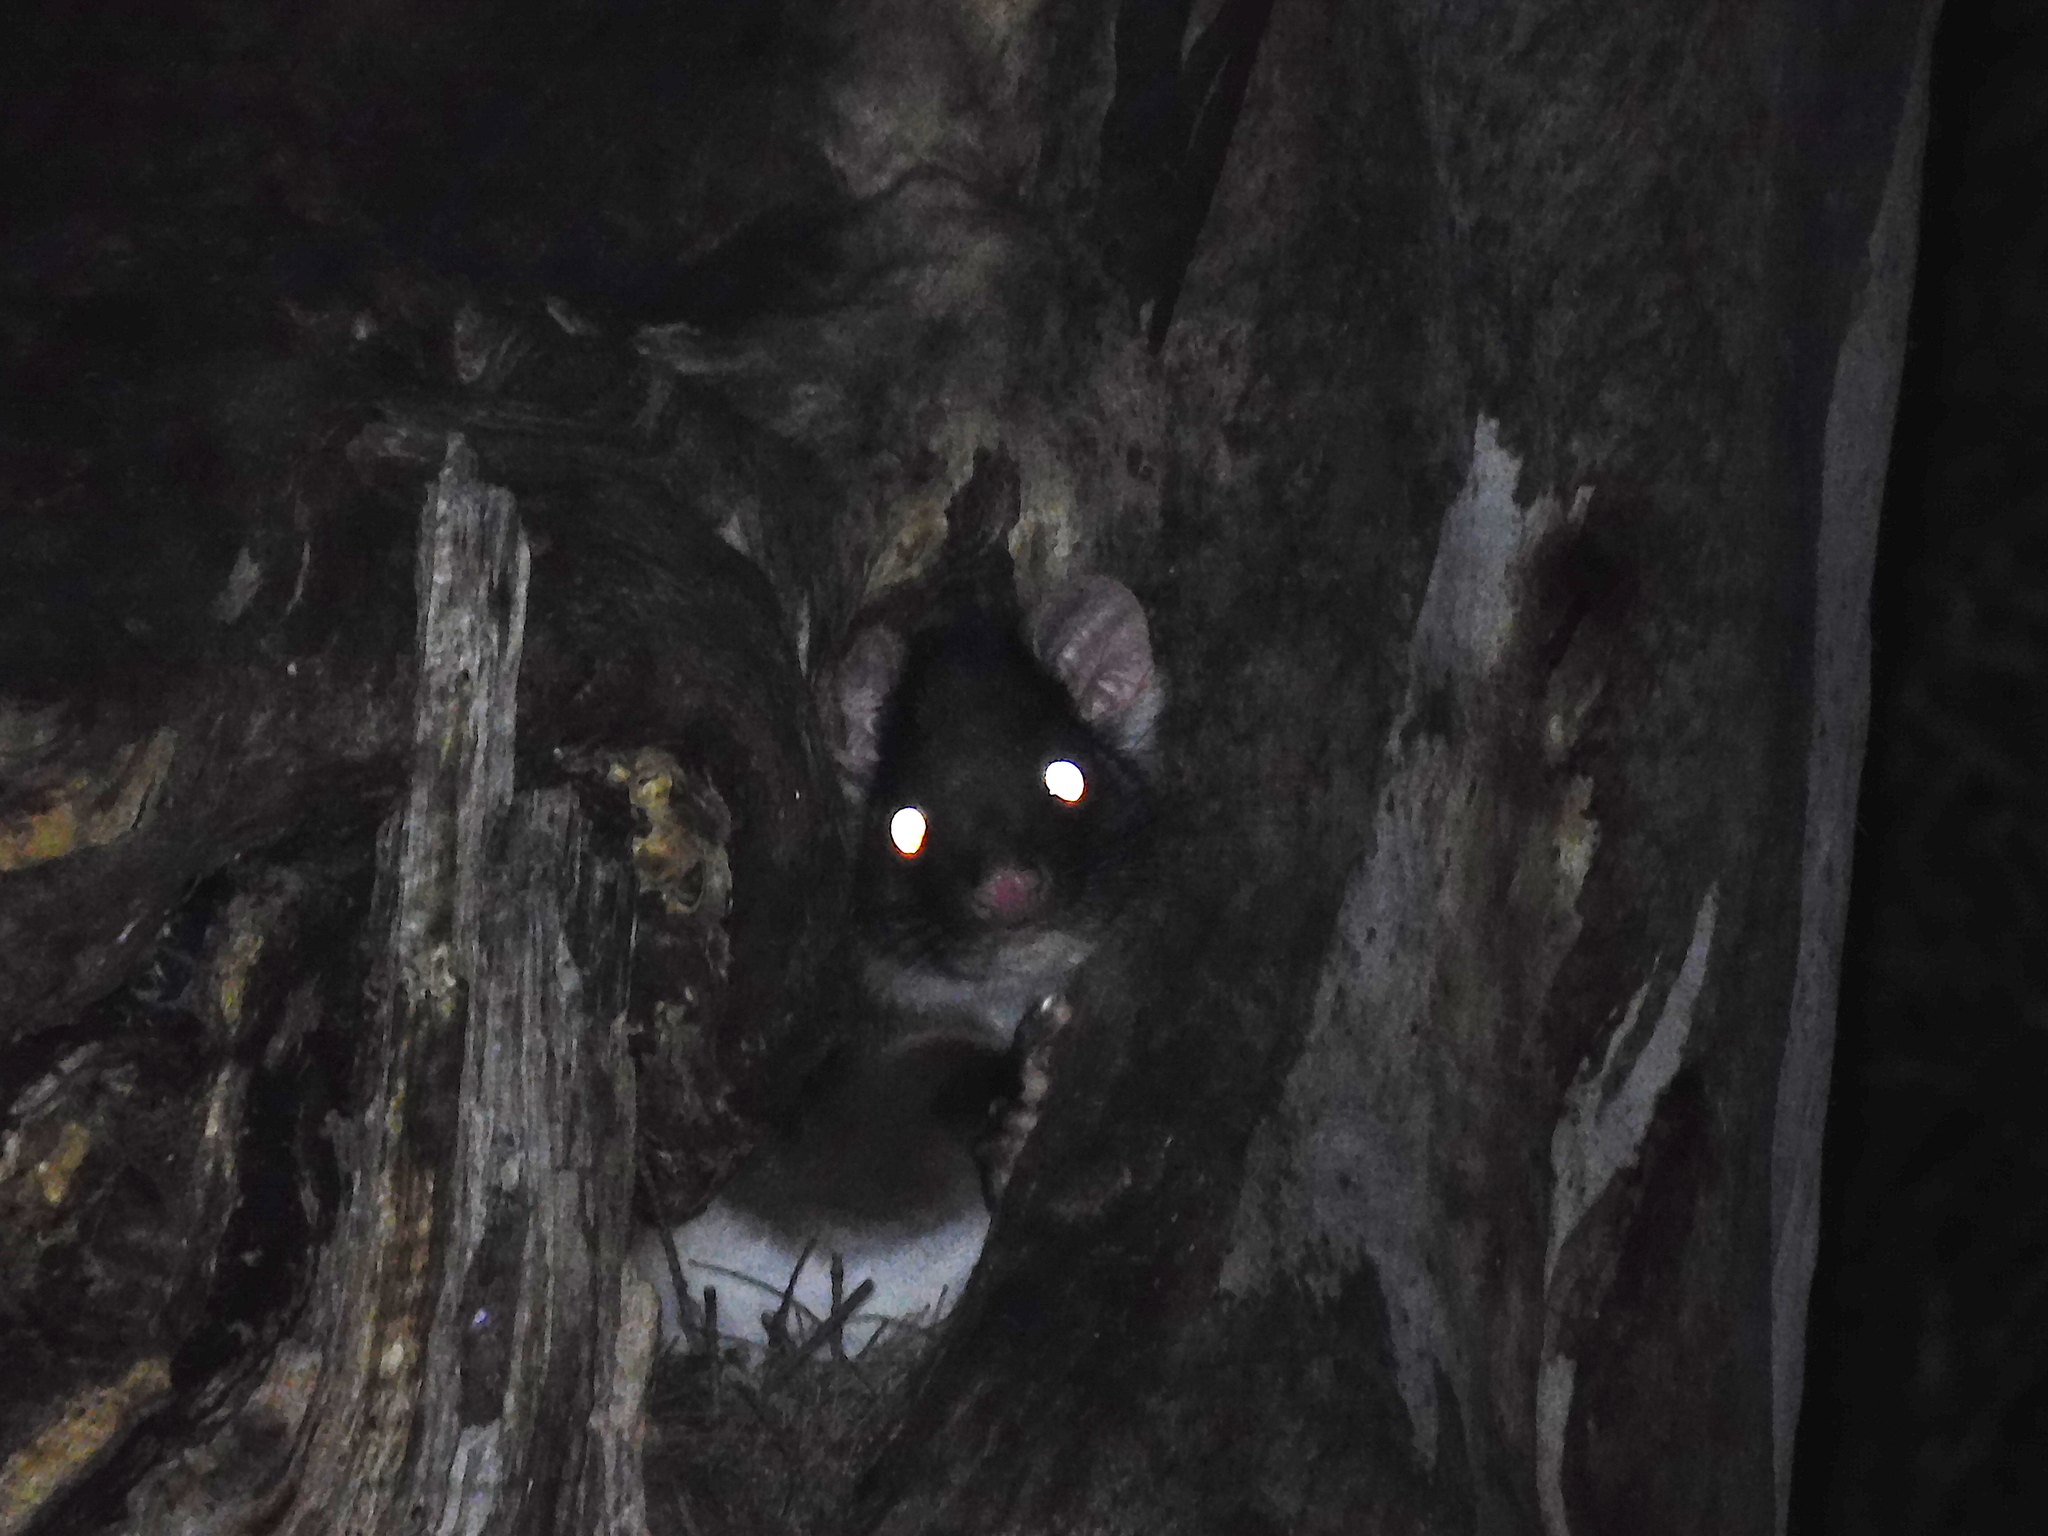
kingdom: Animalia
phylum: Chordata
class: Mammalia
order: Diprotodontia
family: Pseudocheiridae
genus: Pseudocheirus
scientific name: Pseudocheirus peregrinus
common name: Common ringtail possum
